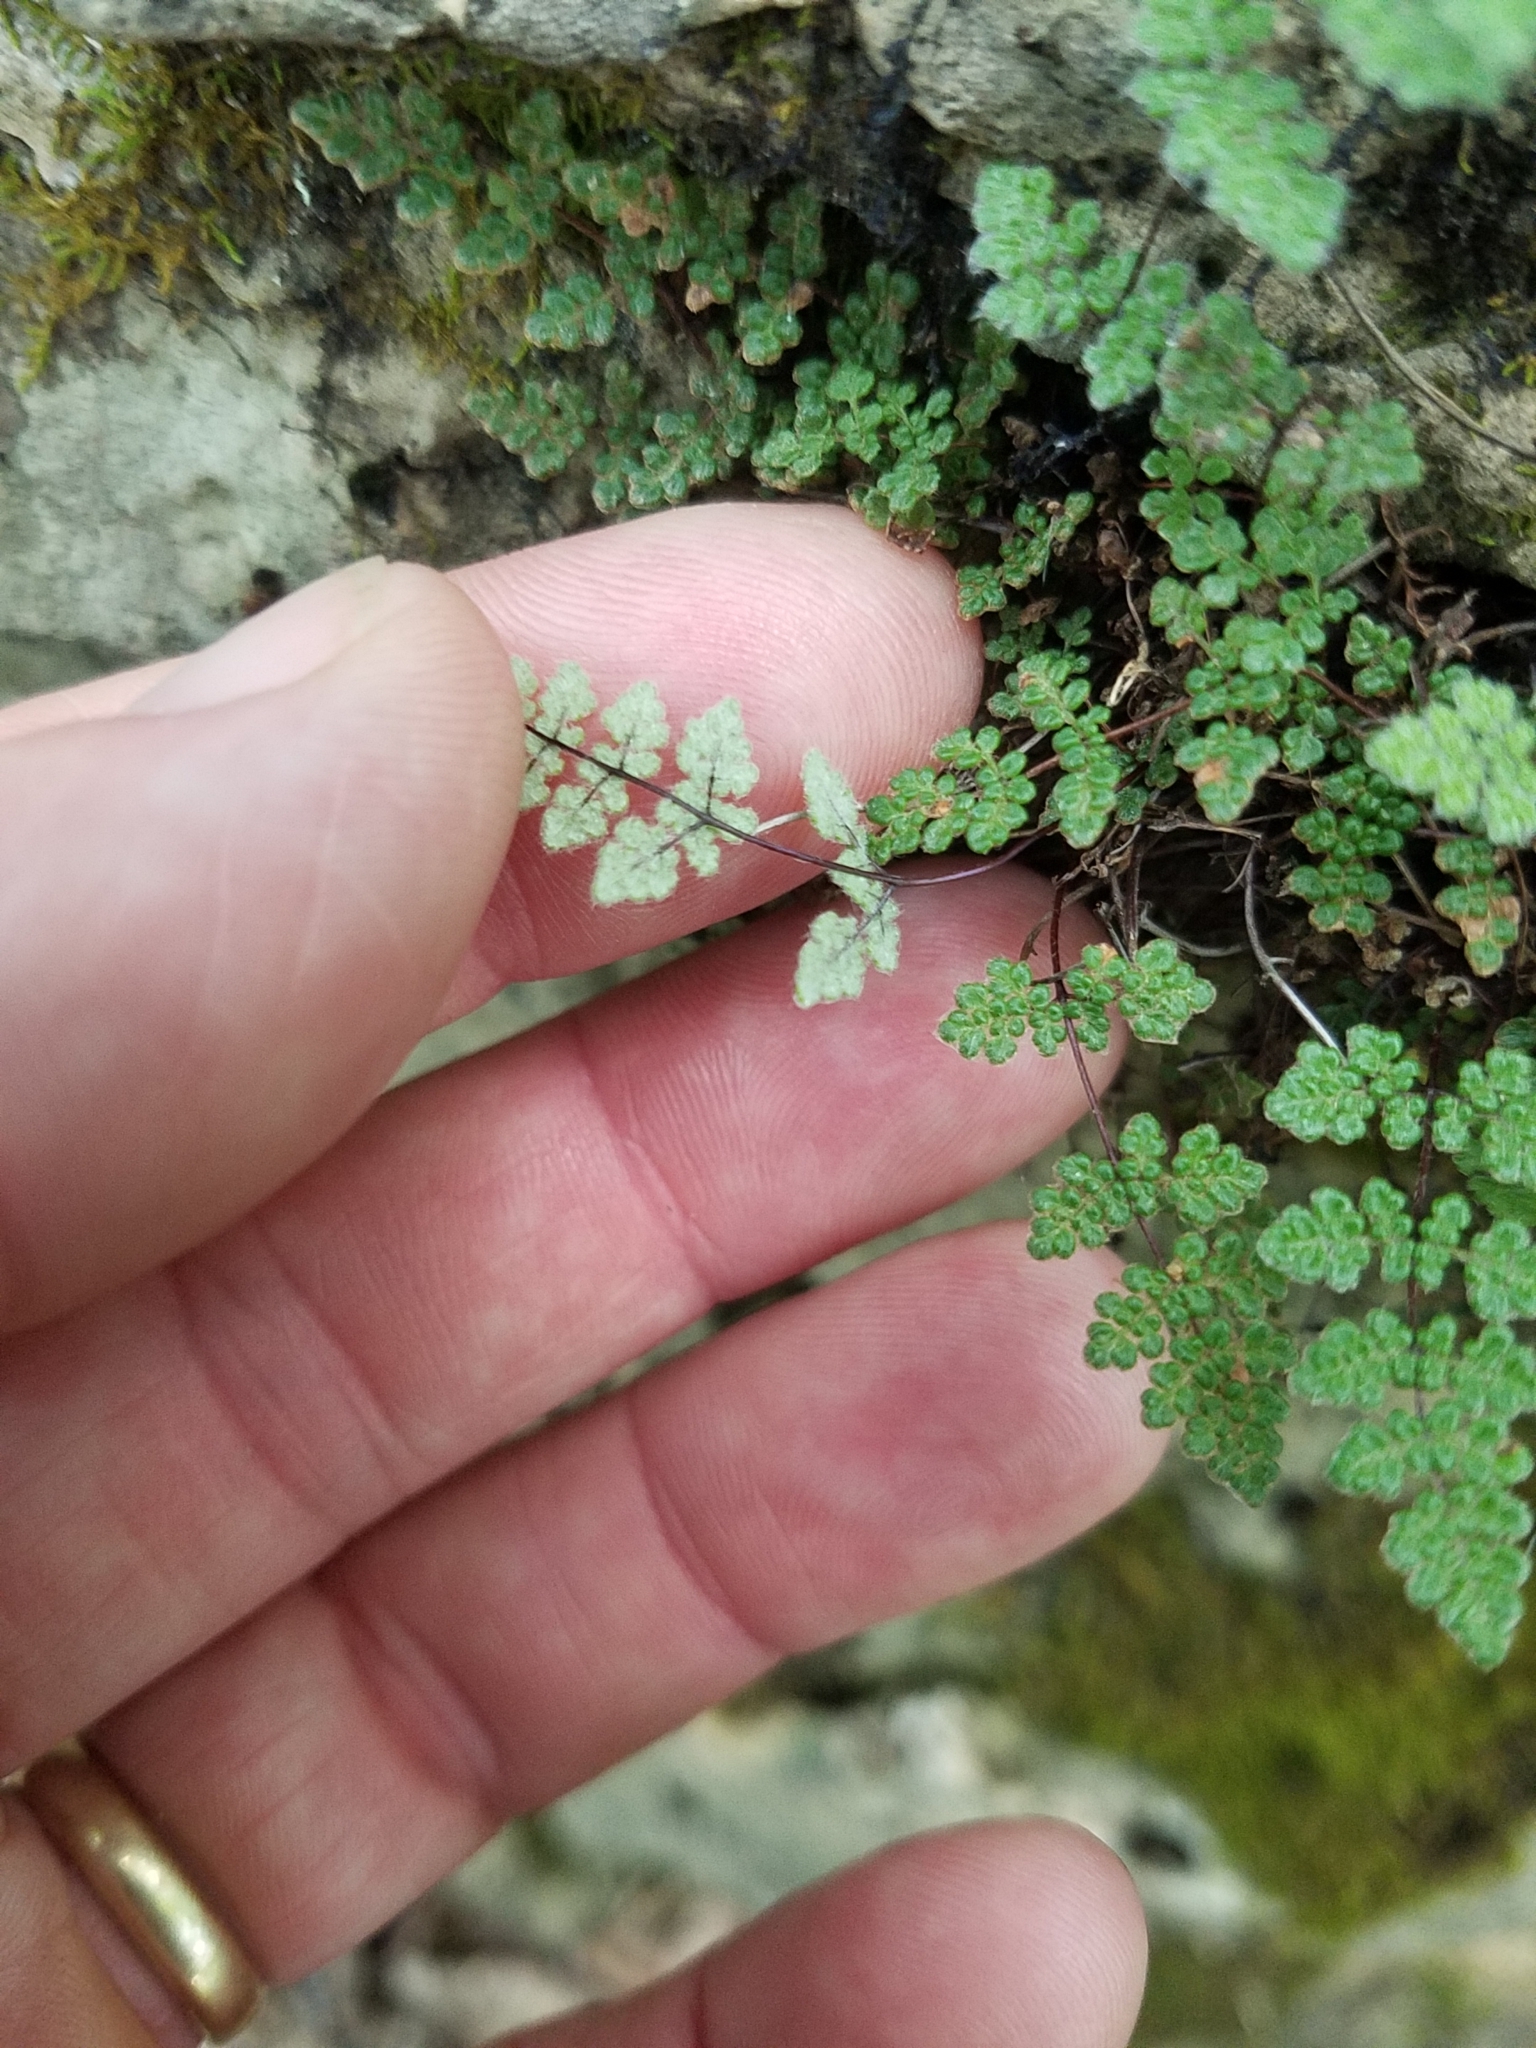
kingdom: Plantae
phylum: Tracheophyta
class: Polypodiopsida
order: Polypodiales
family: Pteridaceae
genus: Myriopteris
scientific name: Myriopteris gracilis
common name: Fee's lip fern
